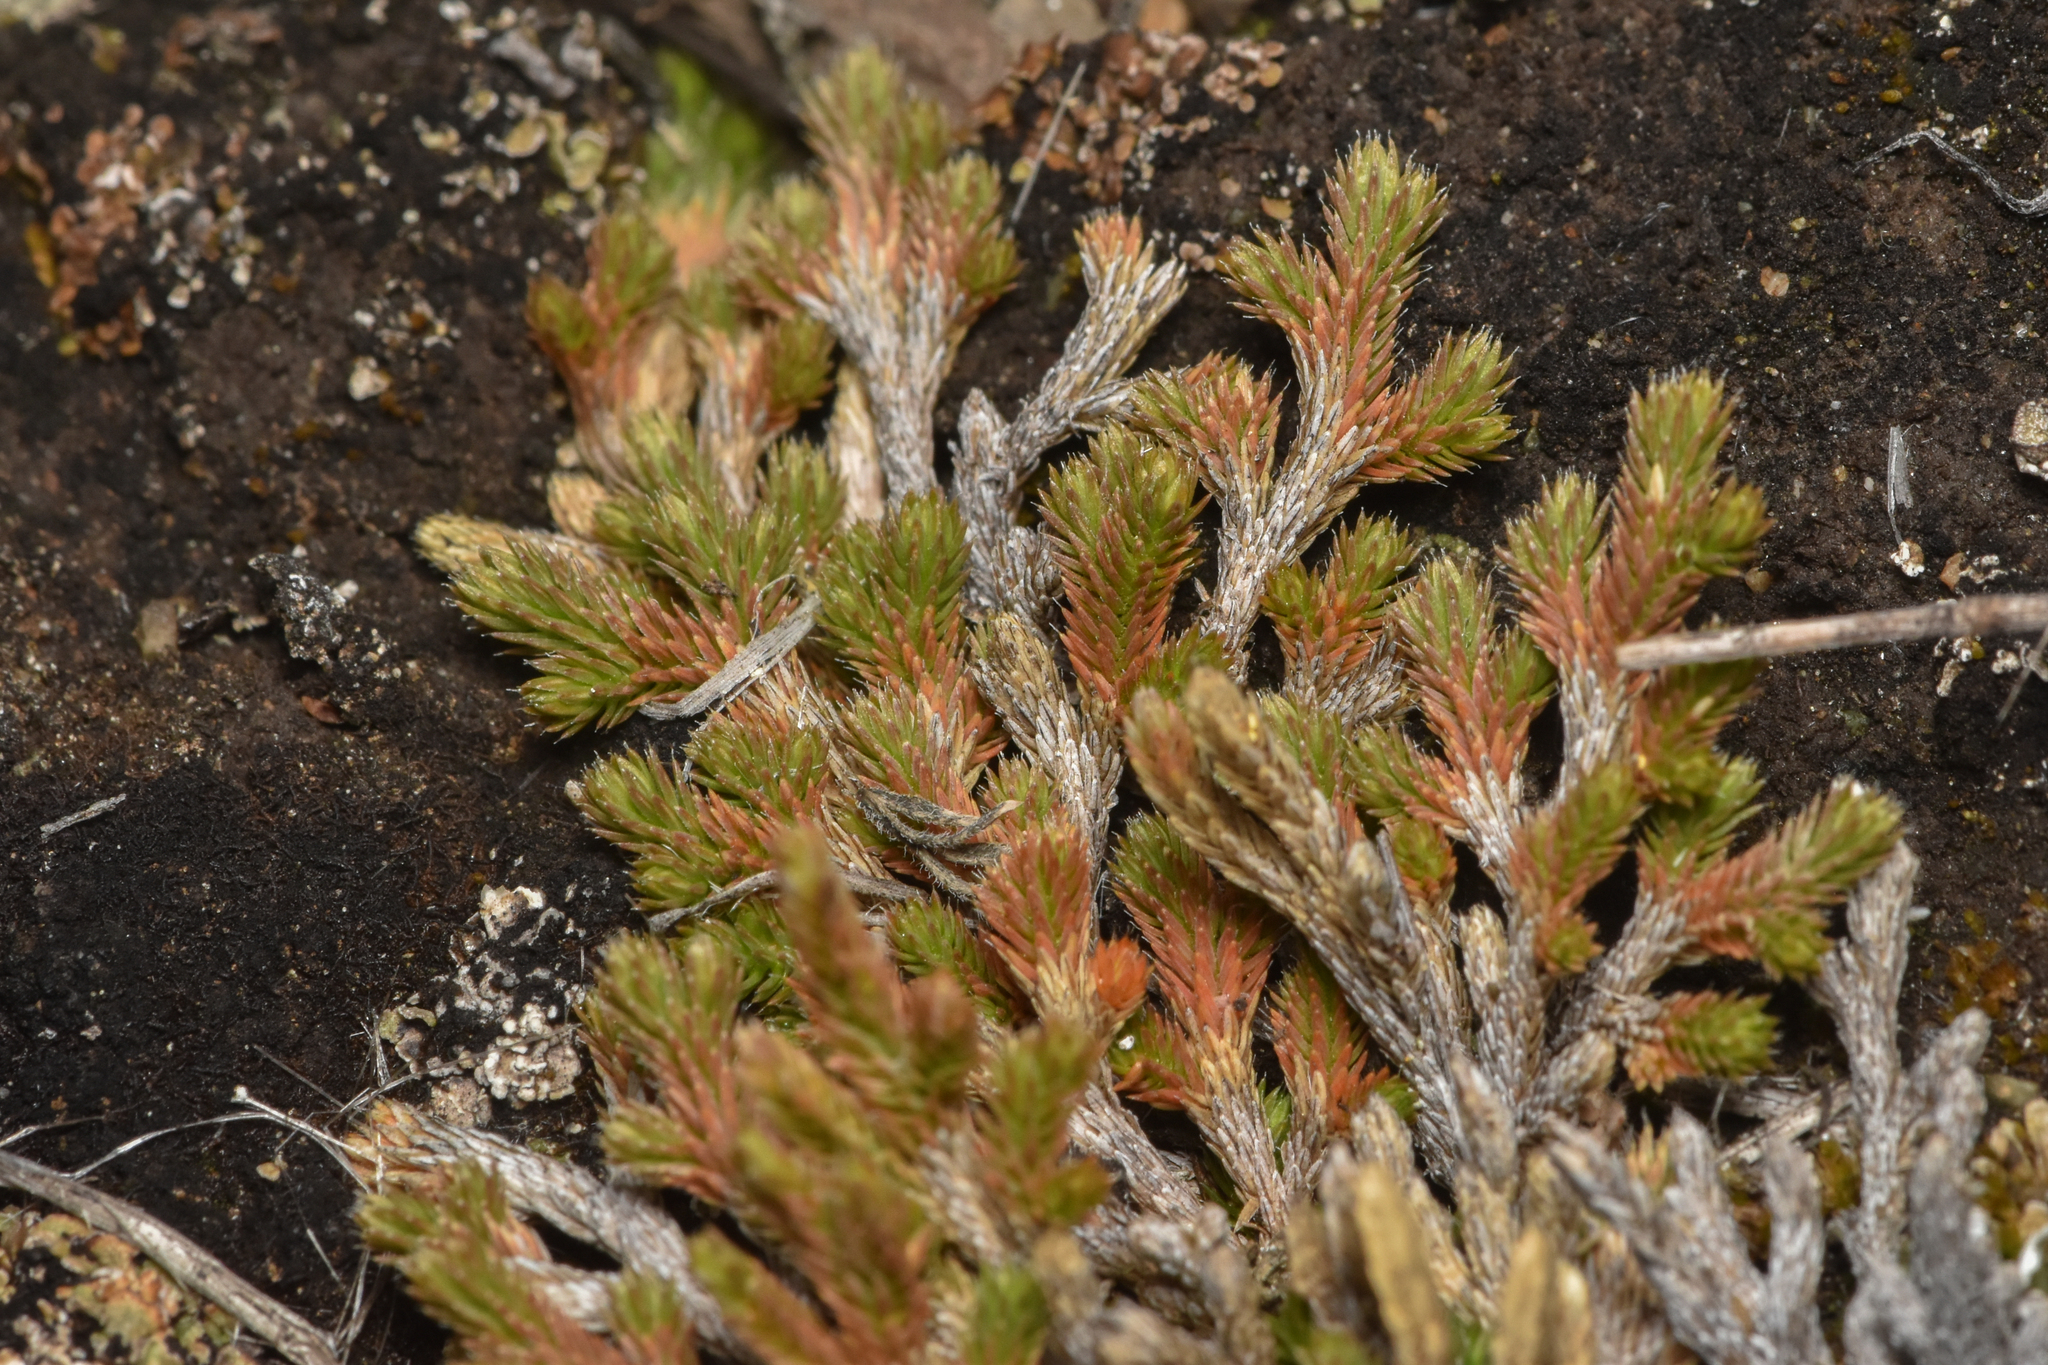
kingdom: Plantae
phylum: Tracheophyta
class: Lycopodiopsida
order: Selaginellales
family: Selaginellaceae
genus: Selaginella
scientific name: Selaginella wallacei
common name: Wallace's selaginella
